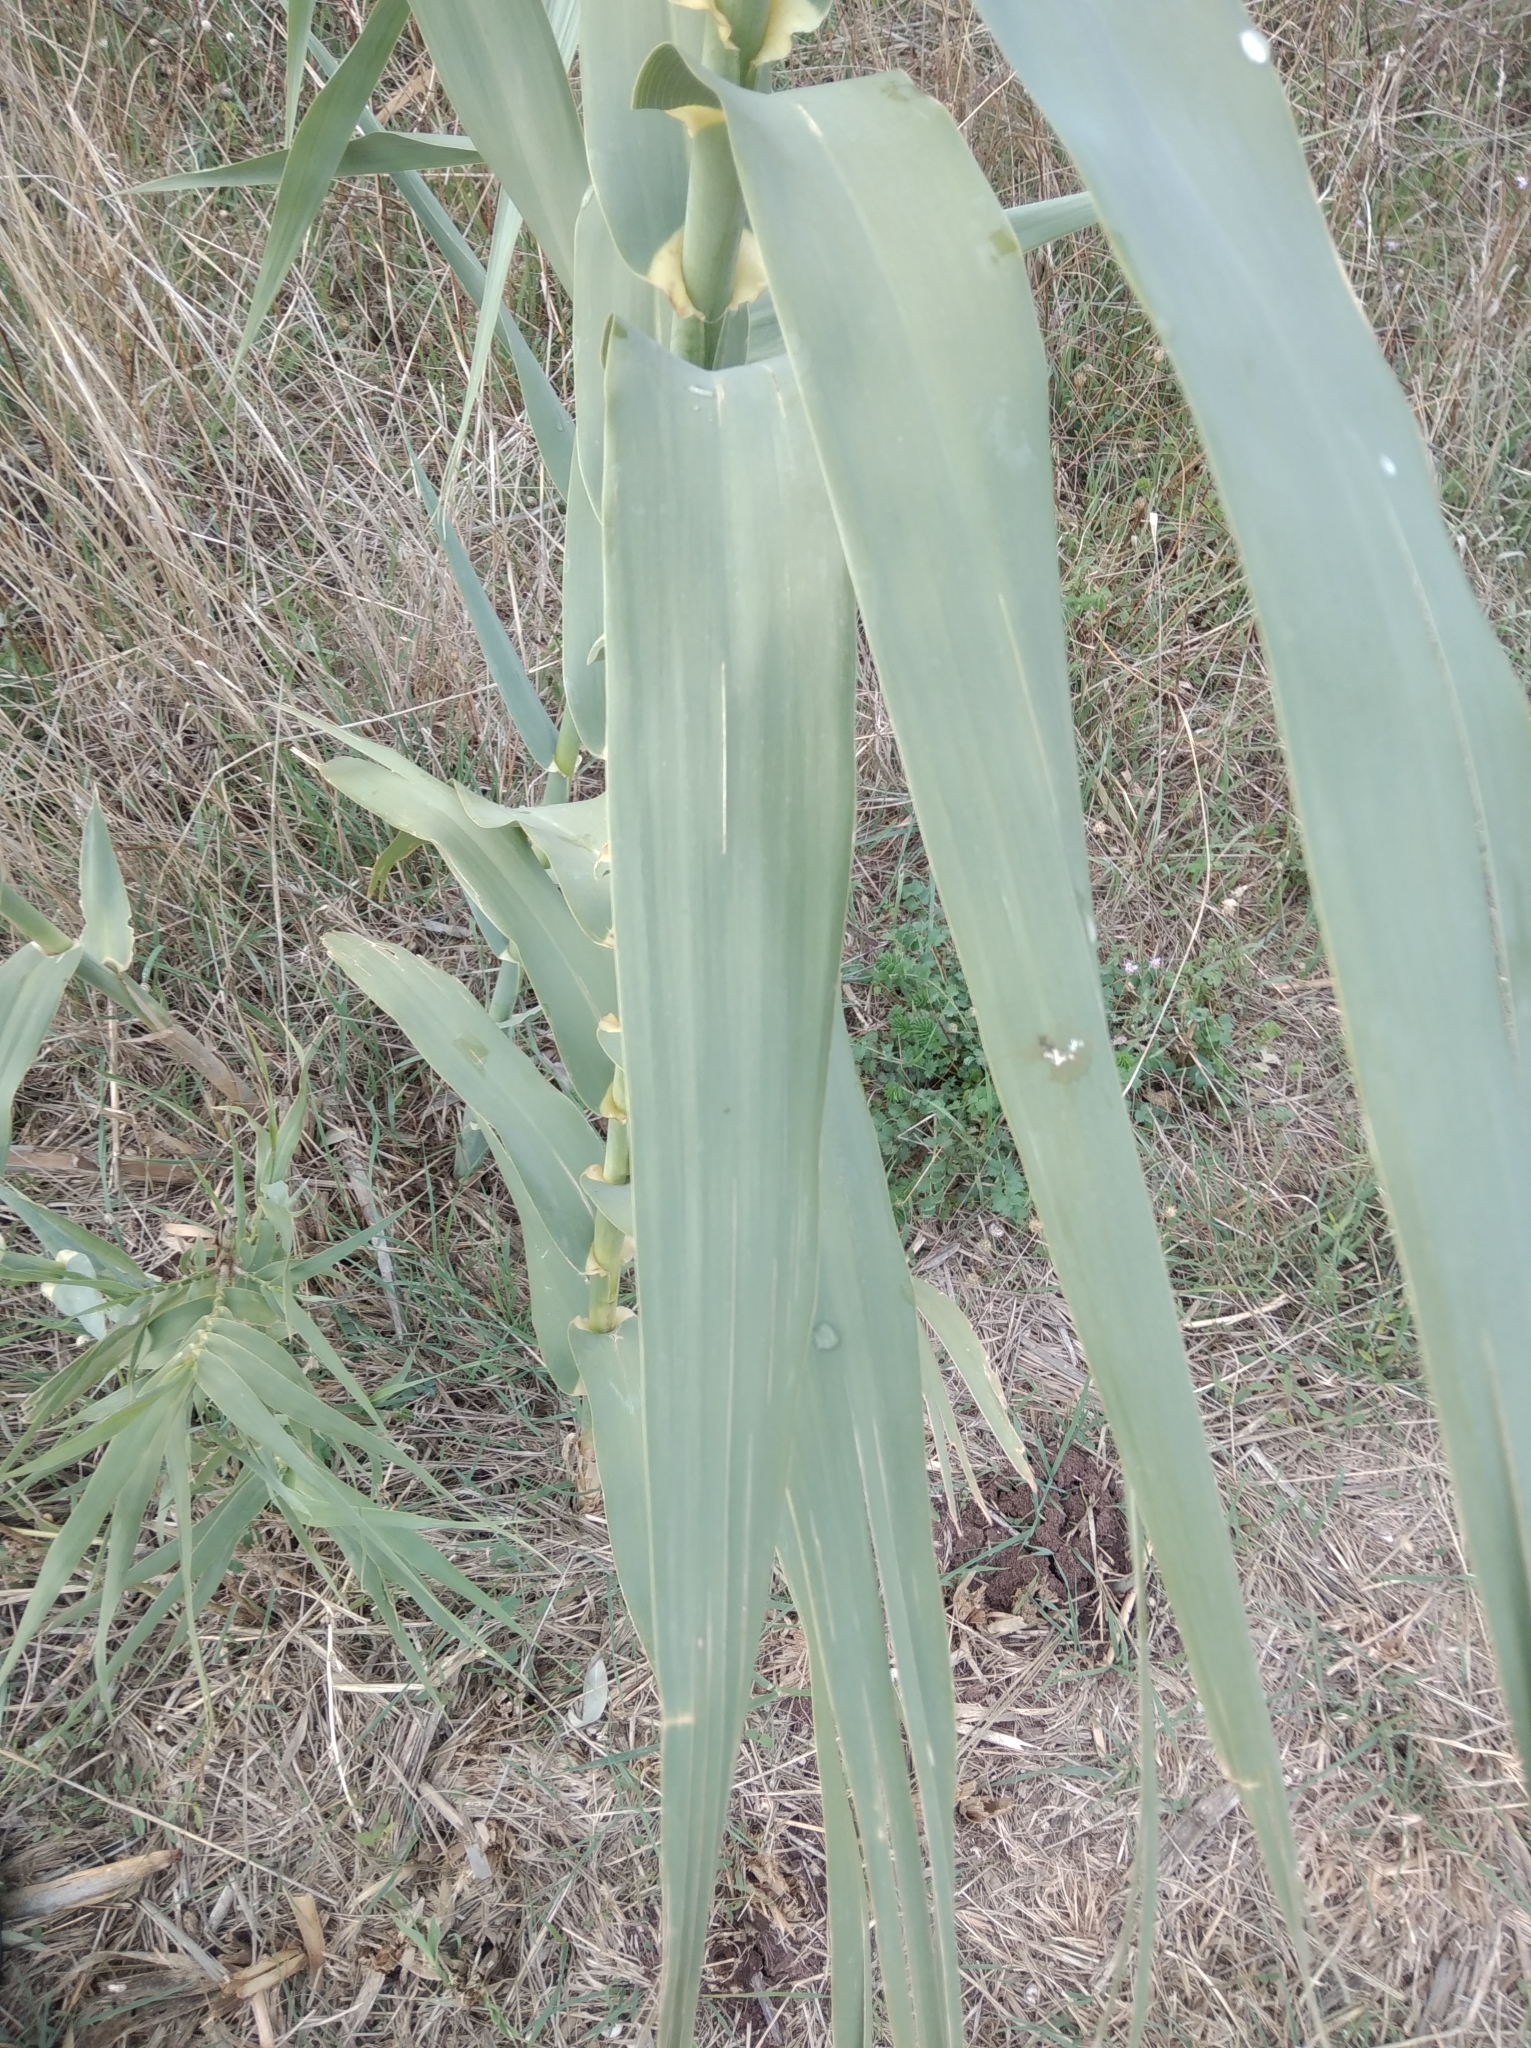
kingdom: Plantae
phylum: Tracheophyta
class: Liliopsida
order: Poales
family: Poaceae
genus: Arundo
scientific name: Arundo donax
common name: Giant reed
